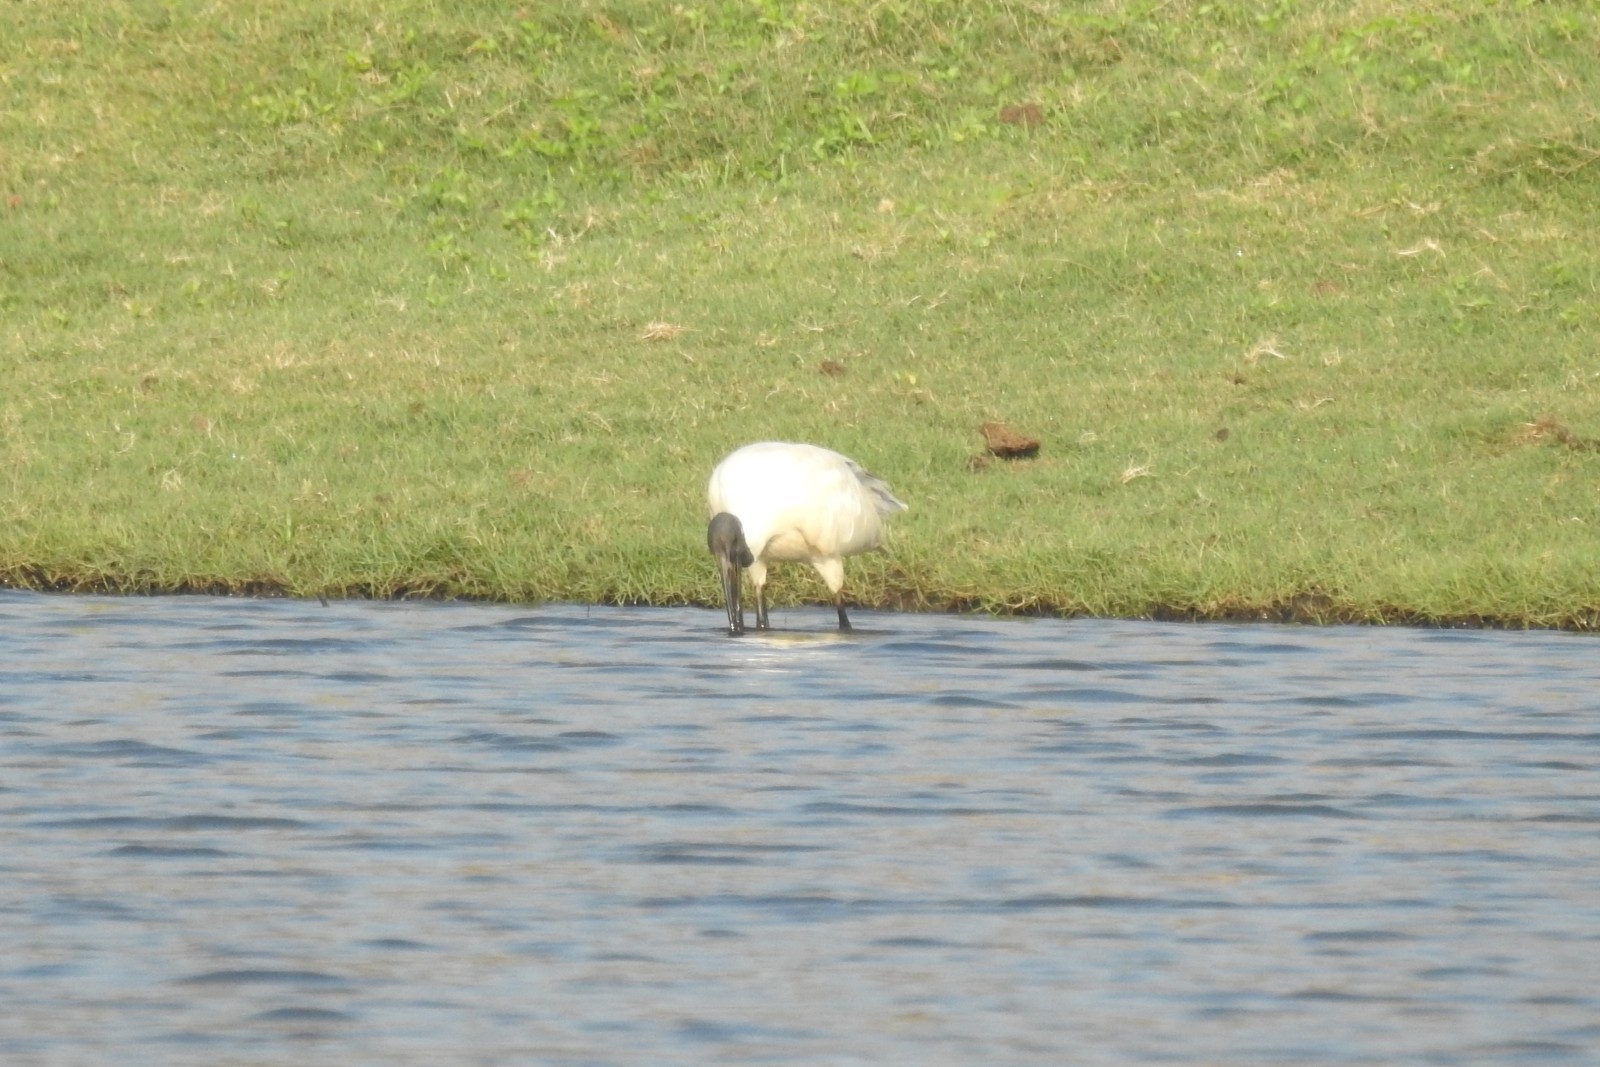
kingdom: Animalia
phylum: Chordata
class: Aves
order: Pelecaniformes
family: Threskiornithidae
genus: Threskiornis
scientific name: Threskiornis melanocephalus
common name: Black-headed ibis
